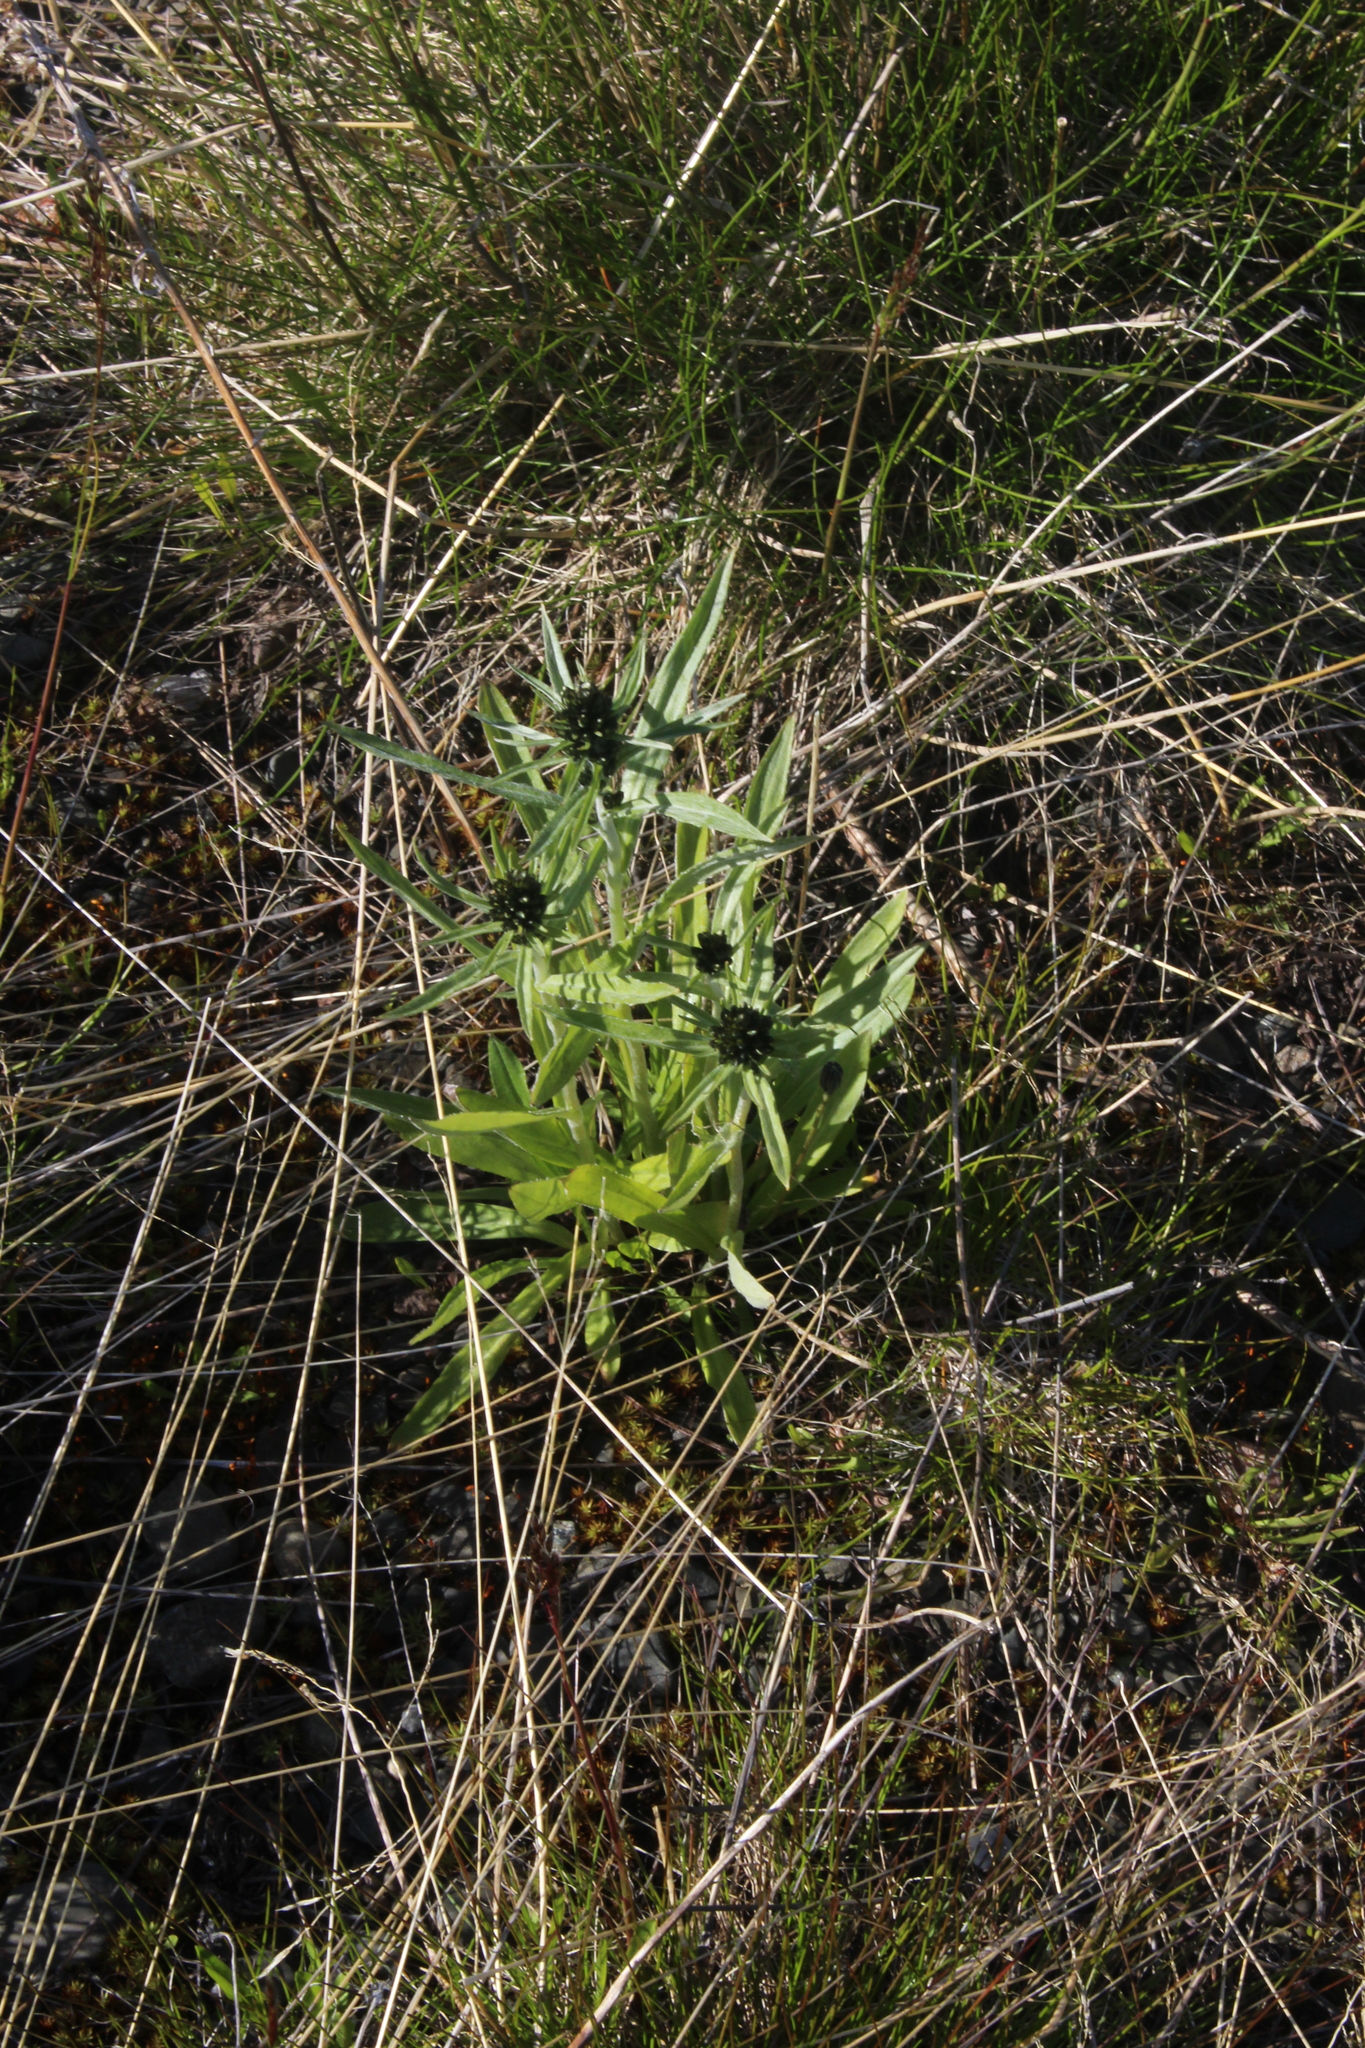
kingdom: Plantae
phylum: Tracheophyta
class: Magnoliopsida
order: Asterales
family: Asteraceae
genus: Omalotheca
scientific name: Omalotheca norvegica
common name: Norwegian arctic-cudweed
